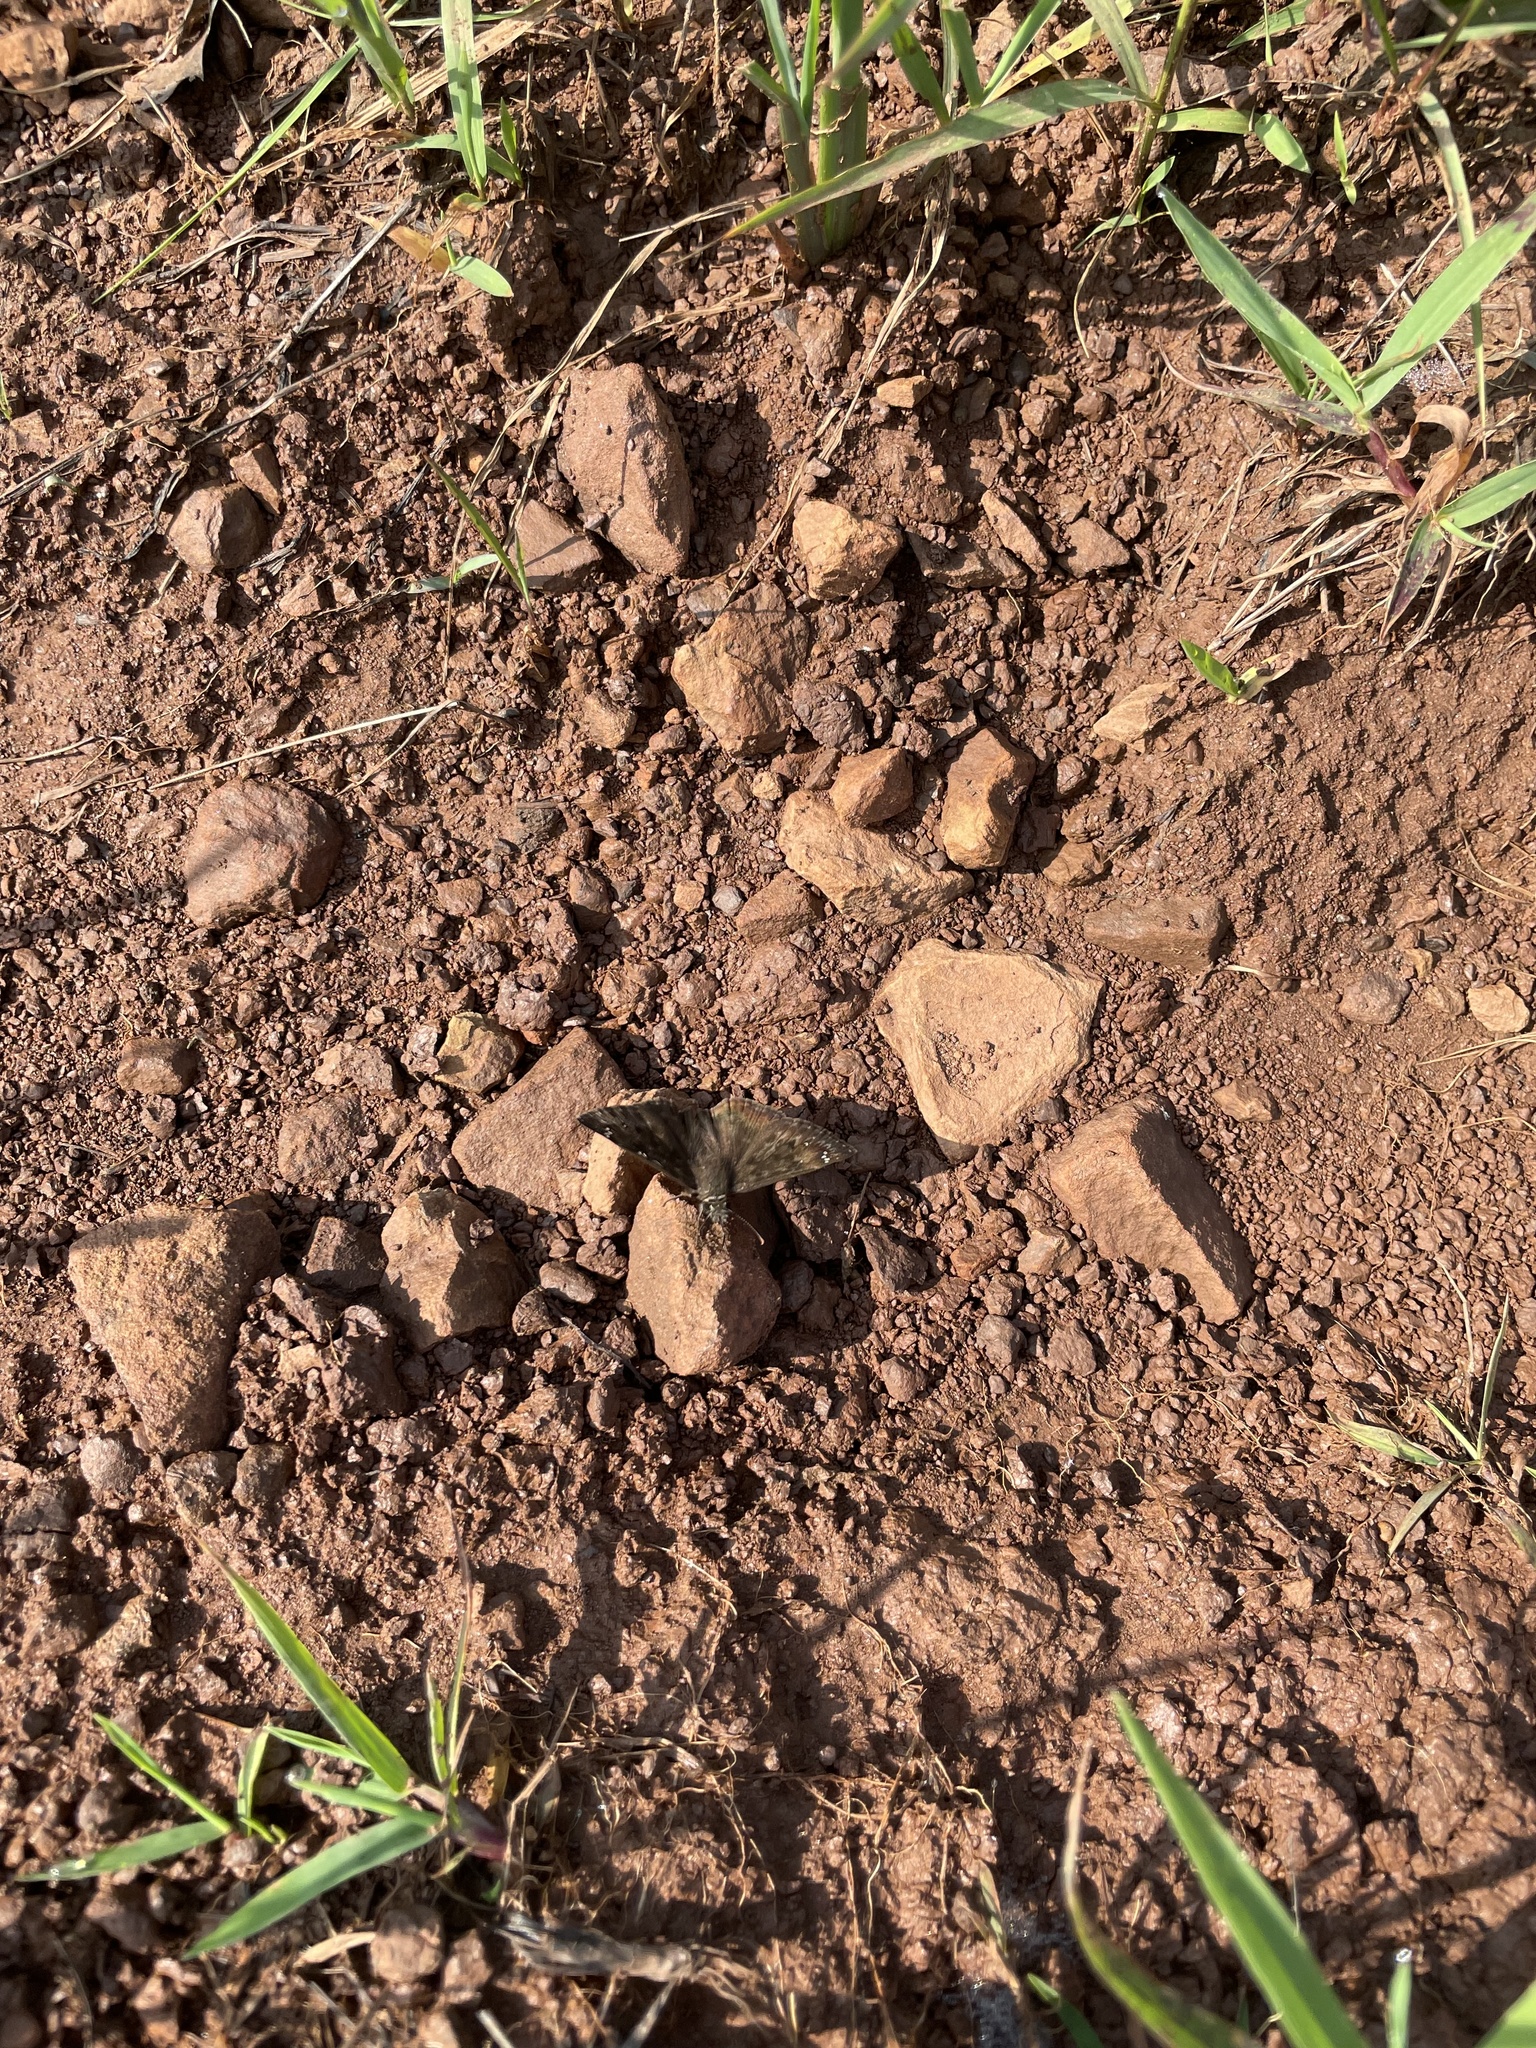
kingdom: Animalia
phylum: Arthropoda
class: Insecta
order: Lepidoptera
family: Hesperiidae
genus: Erynnis
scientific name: Erynnis horatius
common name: Horace's duskywing
